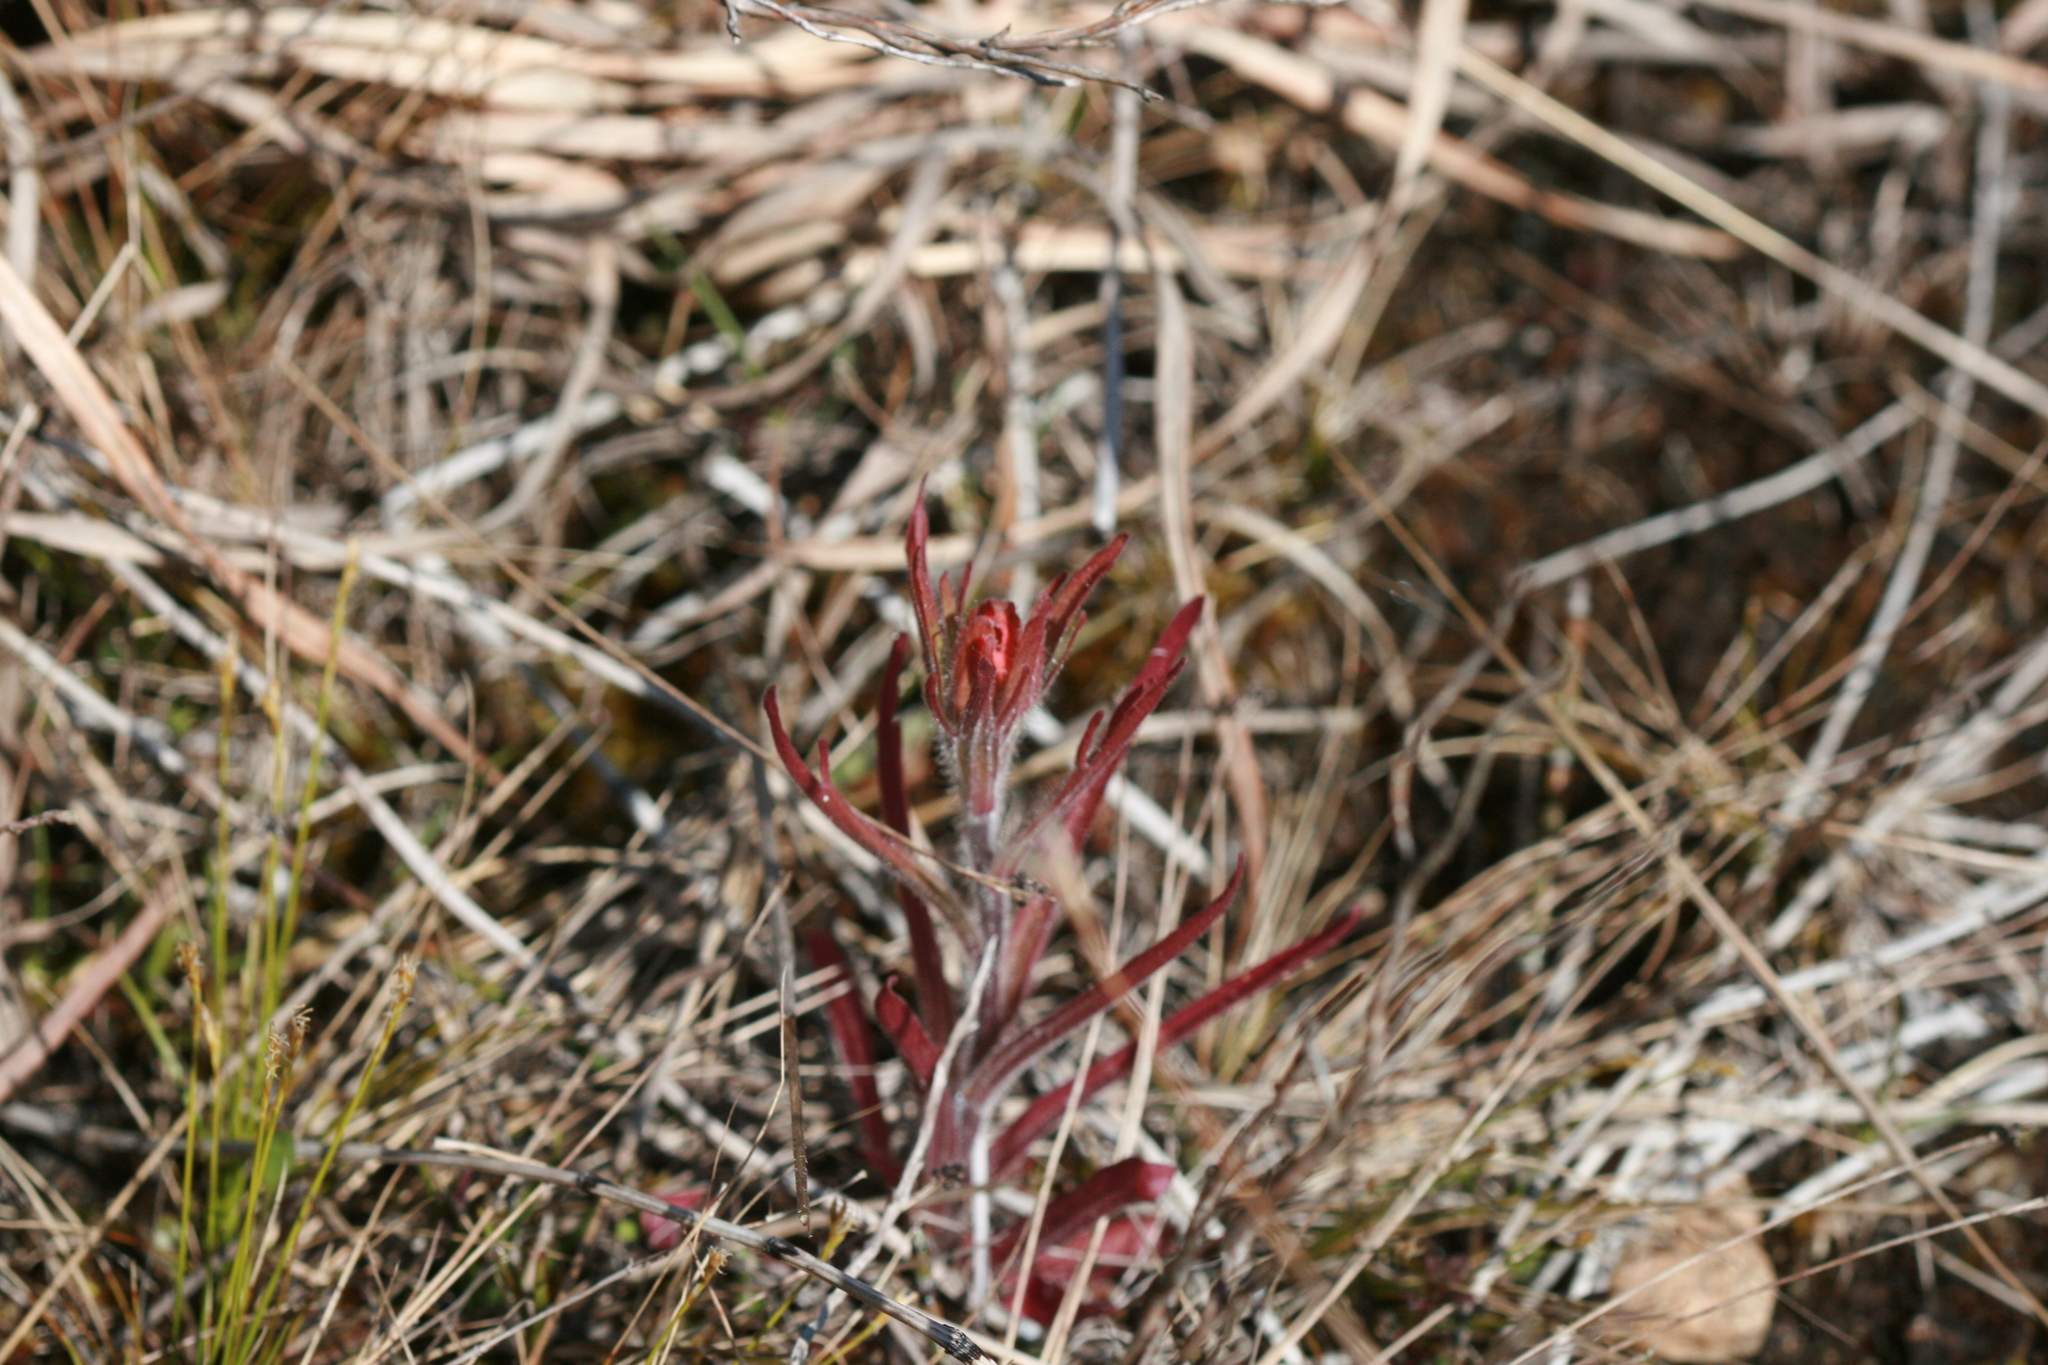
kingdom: Plantae
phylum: Tracheophyta
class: Magnoliopsida
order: Lamiales
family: Orobanchaceae
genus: Castilleja
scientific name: Castilleja coccinea
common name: Scarlet paintbrush
